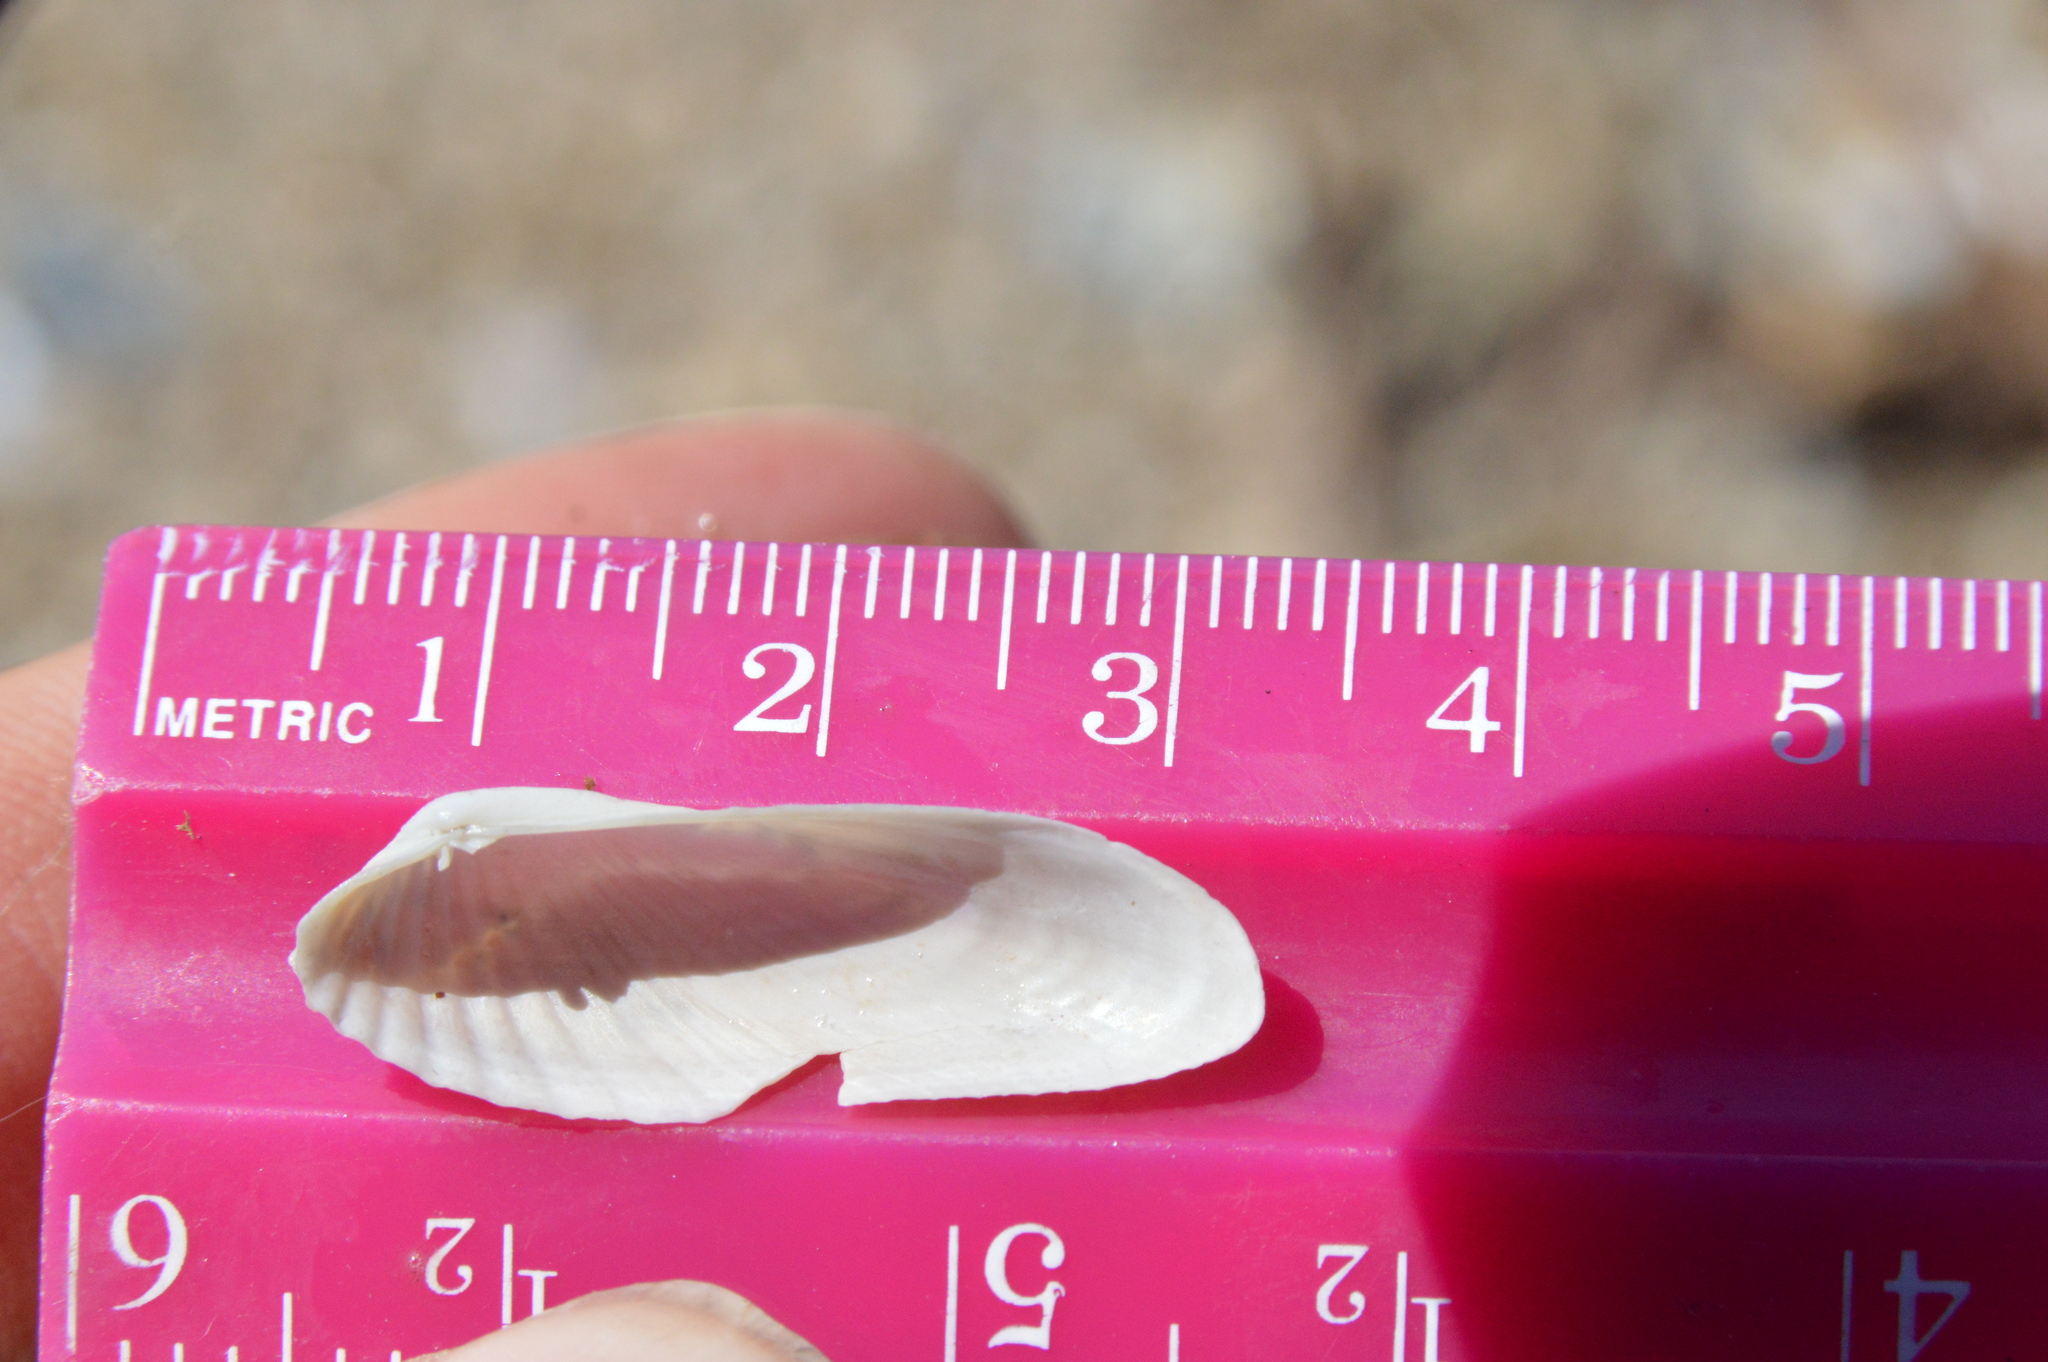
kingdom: Animalia
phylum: Mollusca
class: Bivalvia
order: Venerida
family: Veneridae
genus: Petricolaria
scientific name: Petricolaria pholadiformis
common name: American piddock
